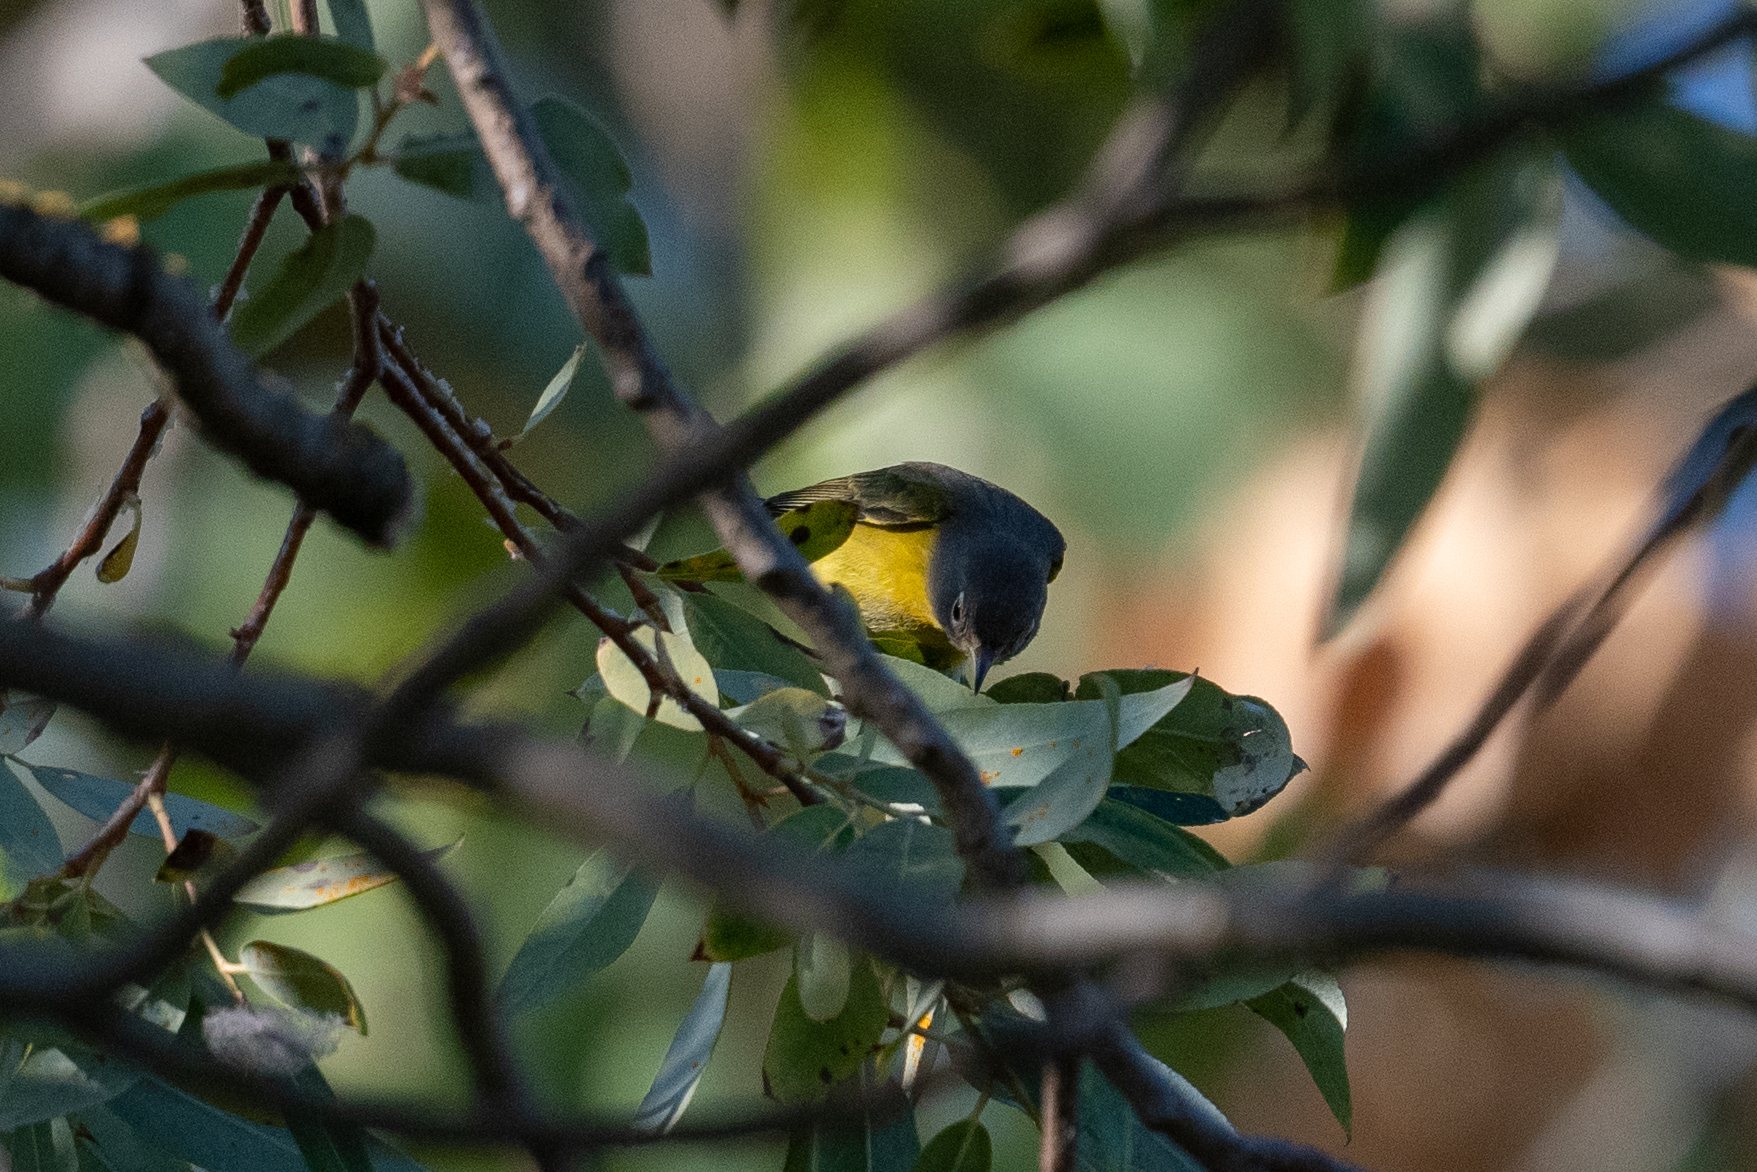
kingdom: Animalia
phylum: Chordata
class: Aves
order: Passeriformes
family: Parulidae
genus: Leiothlypis
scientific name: Leiothlypis ruficapilla
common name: Nashville warbler
